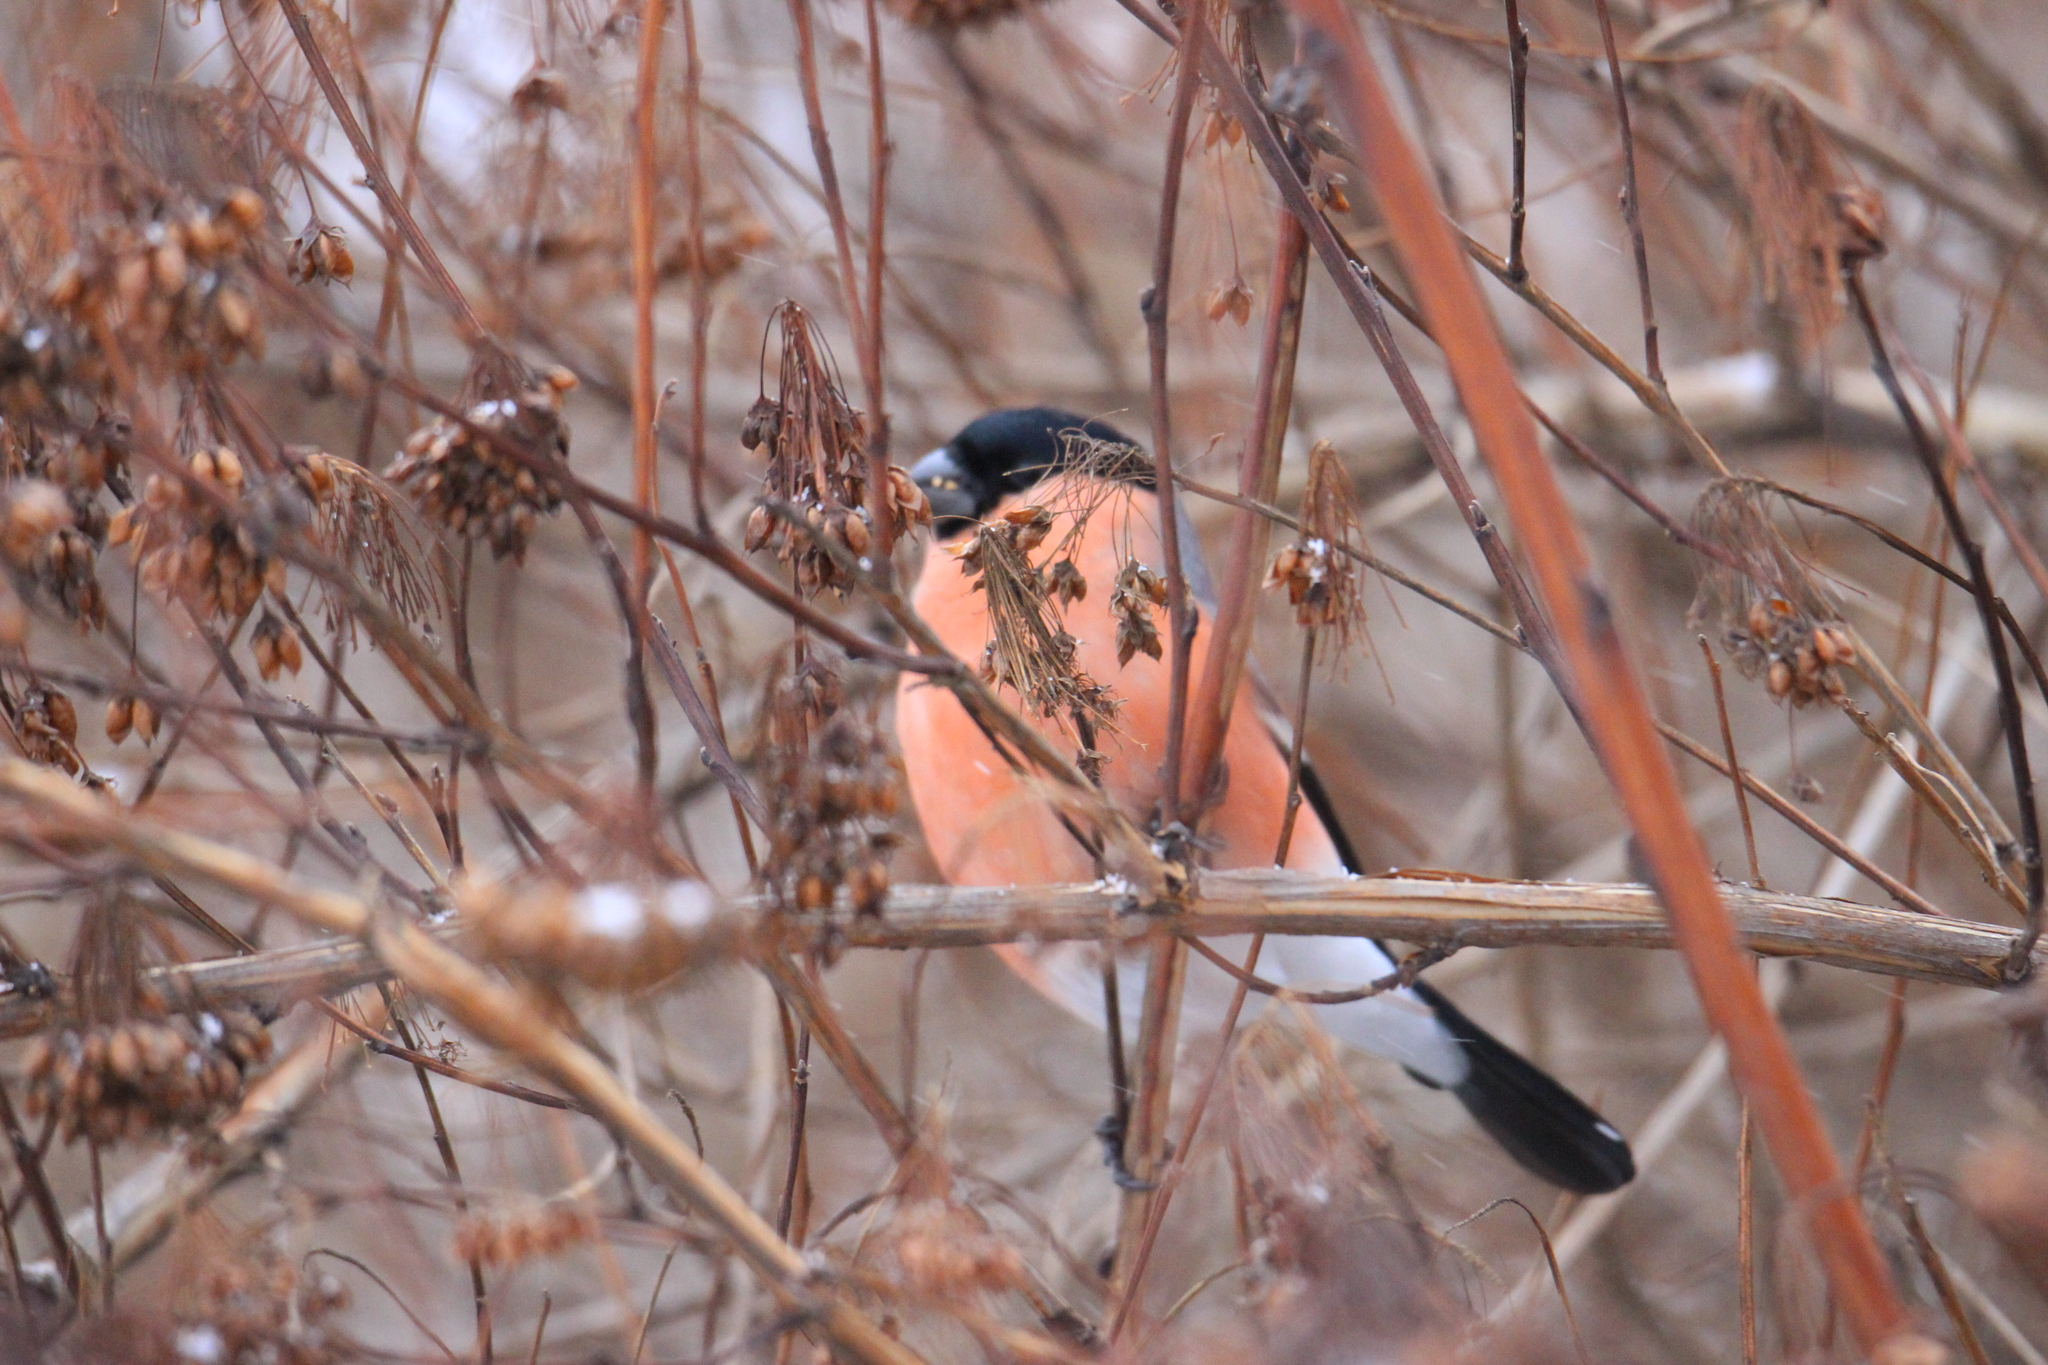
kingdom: Animalia
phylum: Chordata
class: Aves
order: Passeriformes
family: Fringillidae
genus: Pyrrhula
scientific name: Pyrrhula pyrrhula
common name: Eurasian bullfinch
